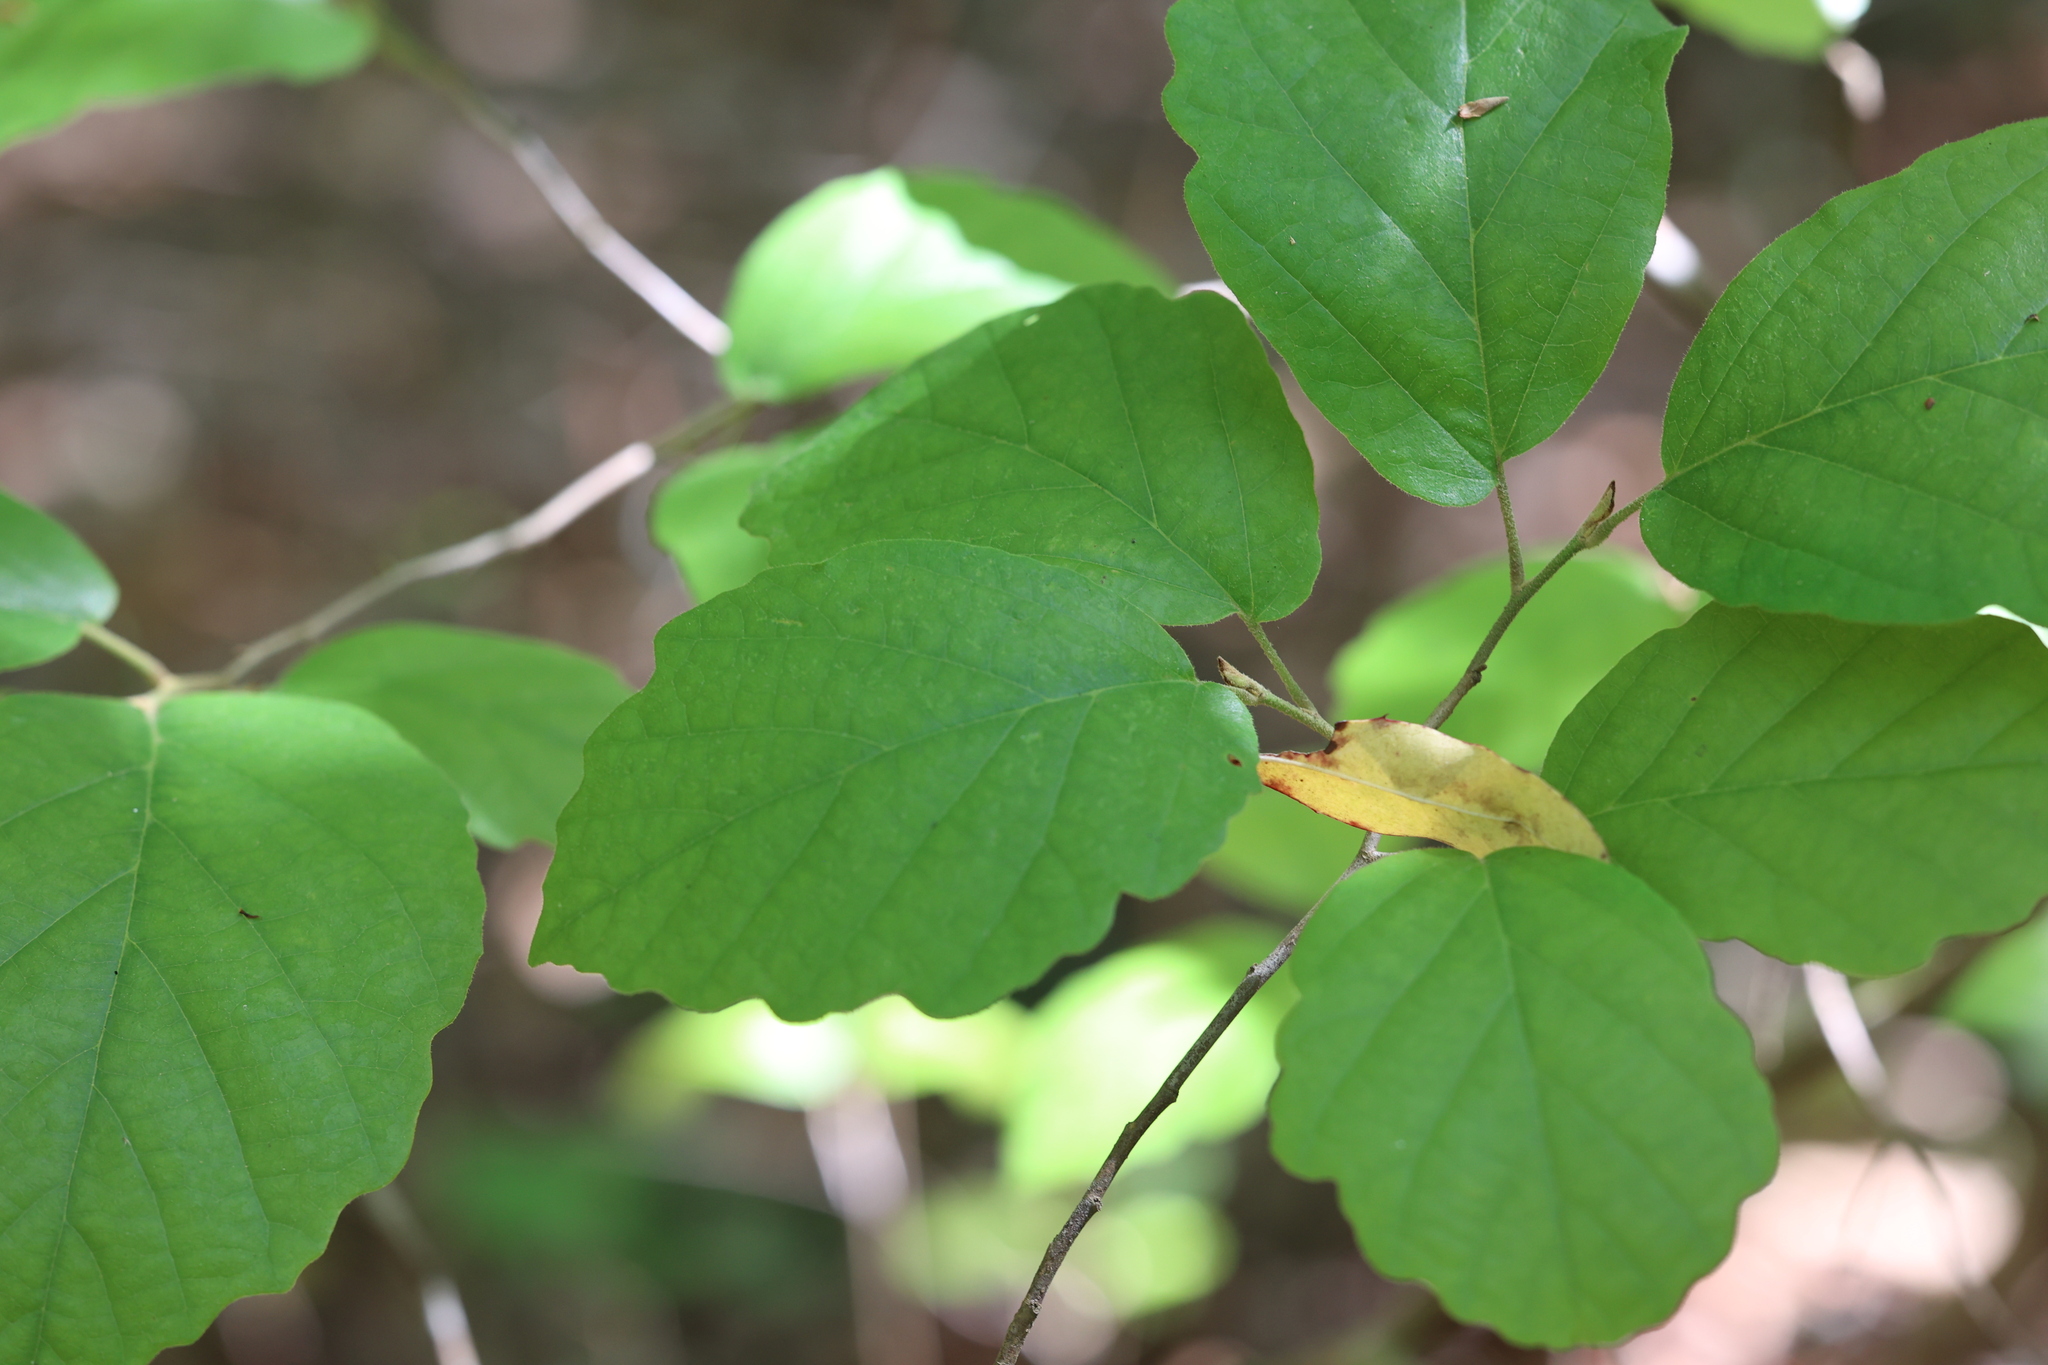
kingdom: Plantae
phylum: Tracheophyta
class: Magnoliopsida
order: Saxifragales
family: Hamamelidaceae
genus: Hamamelis
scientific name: Hamamelis virginiana
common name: Witch-hazel
